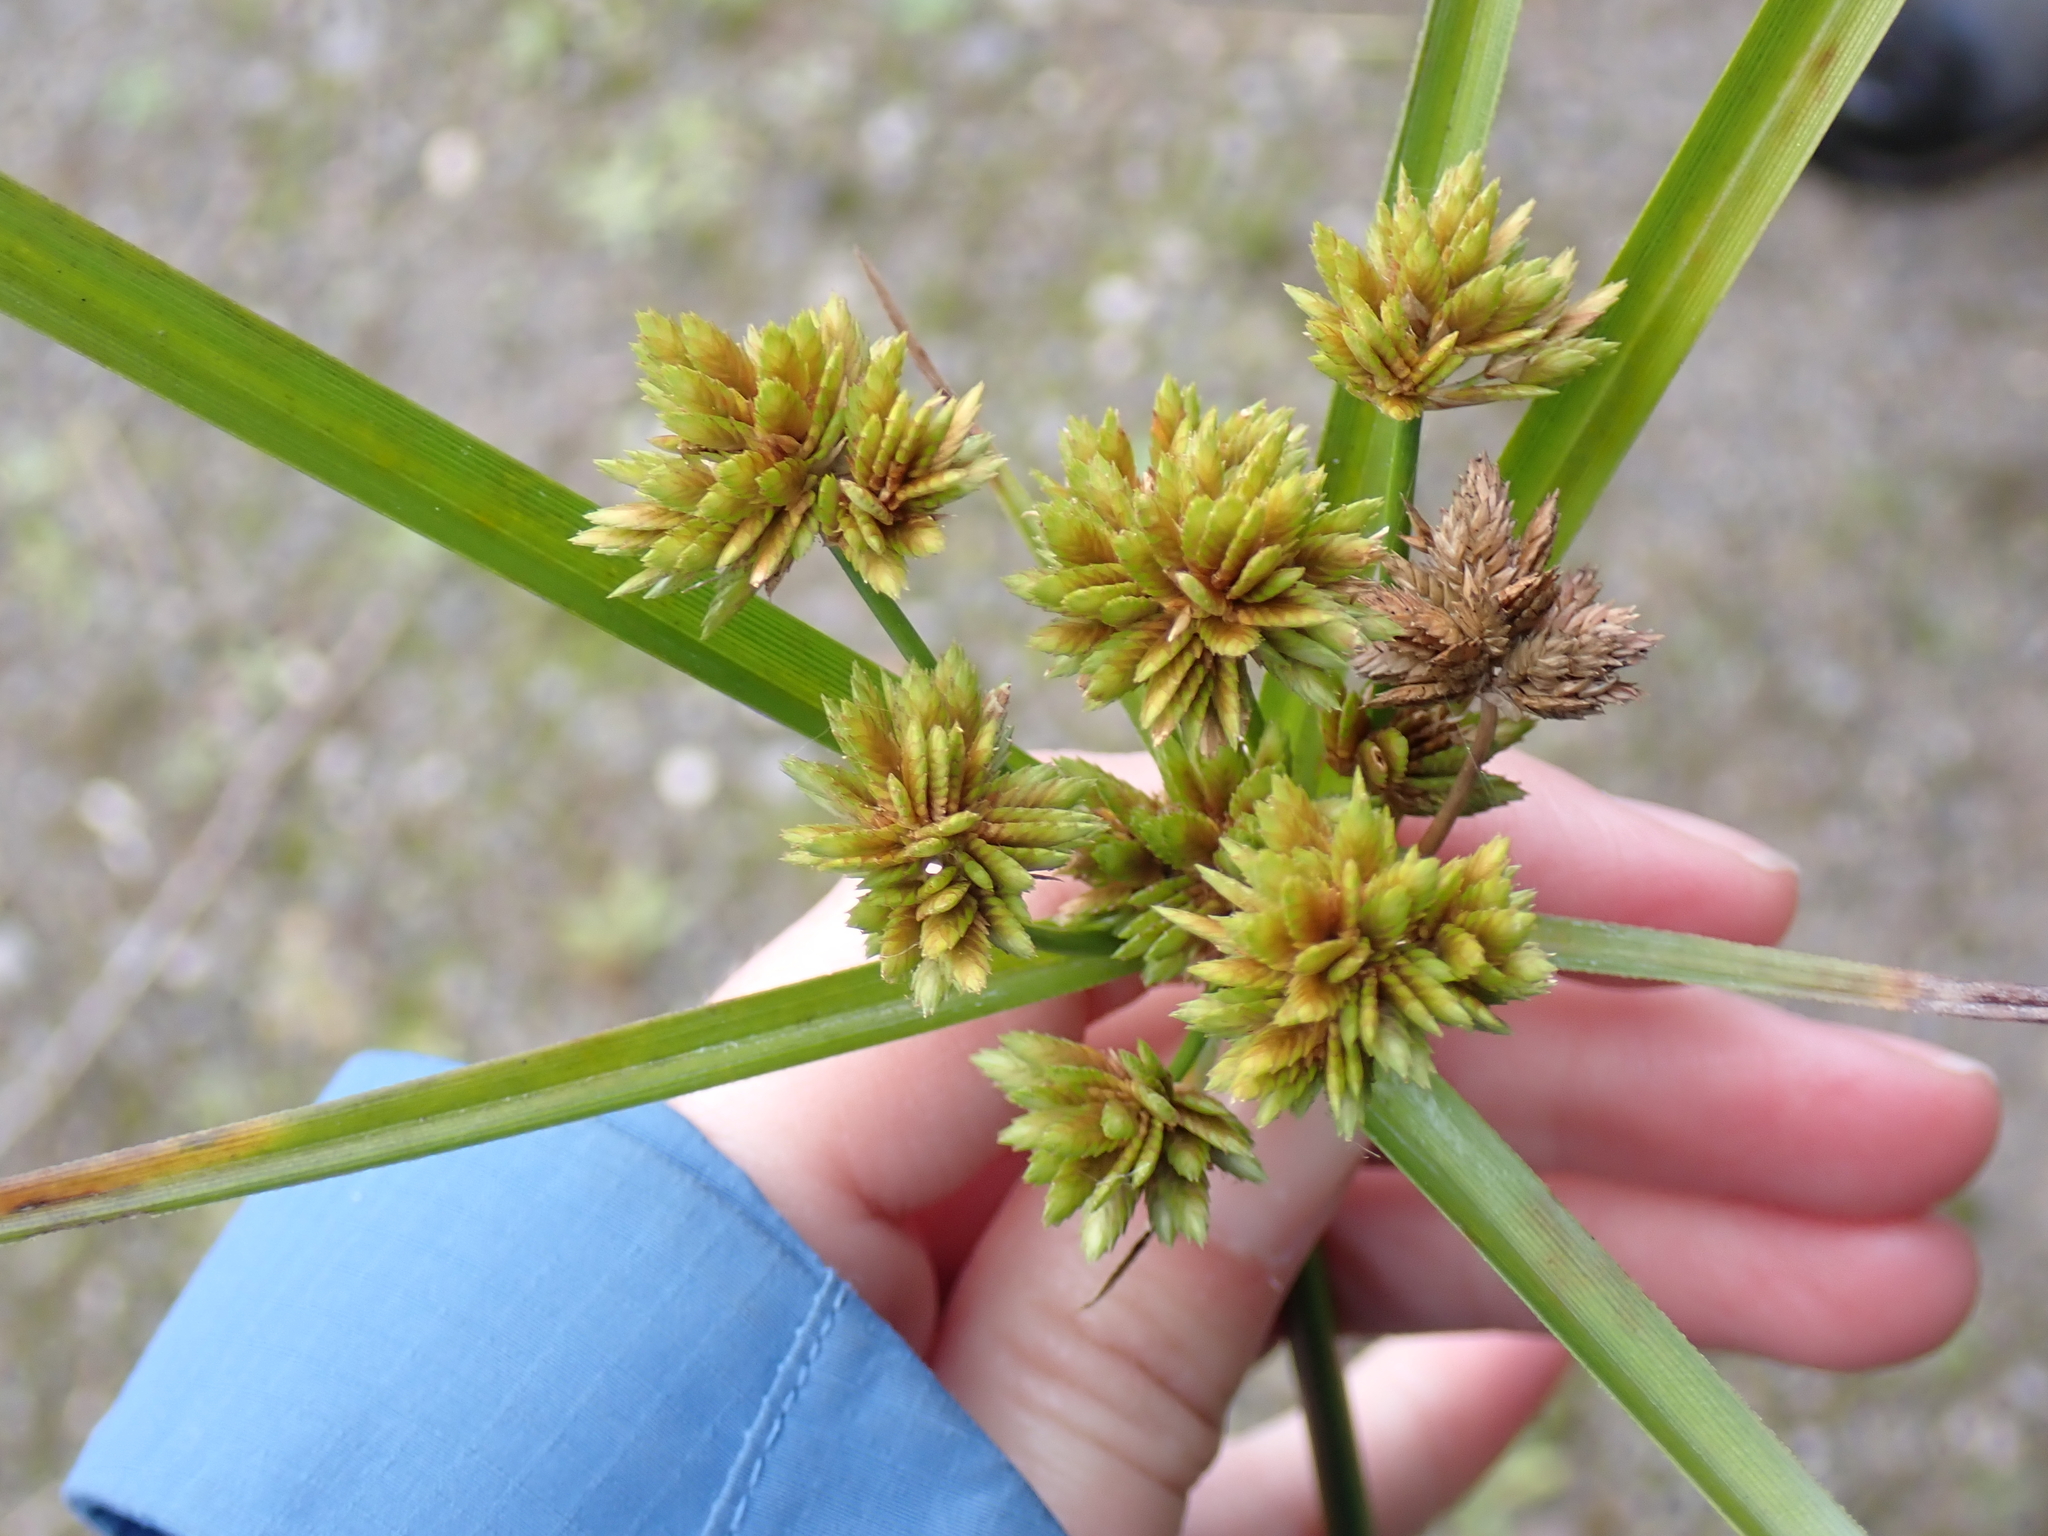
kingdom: Plantae
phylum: Tracheophyta
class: Liliopsida
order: Poales
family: Cyperaceae
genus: Cyperus
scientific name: Cyperus eragrostis
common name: Tall flatsedge
